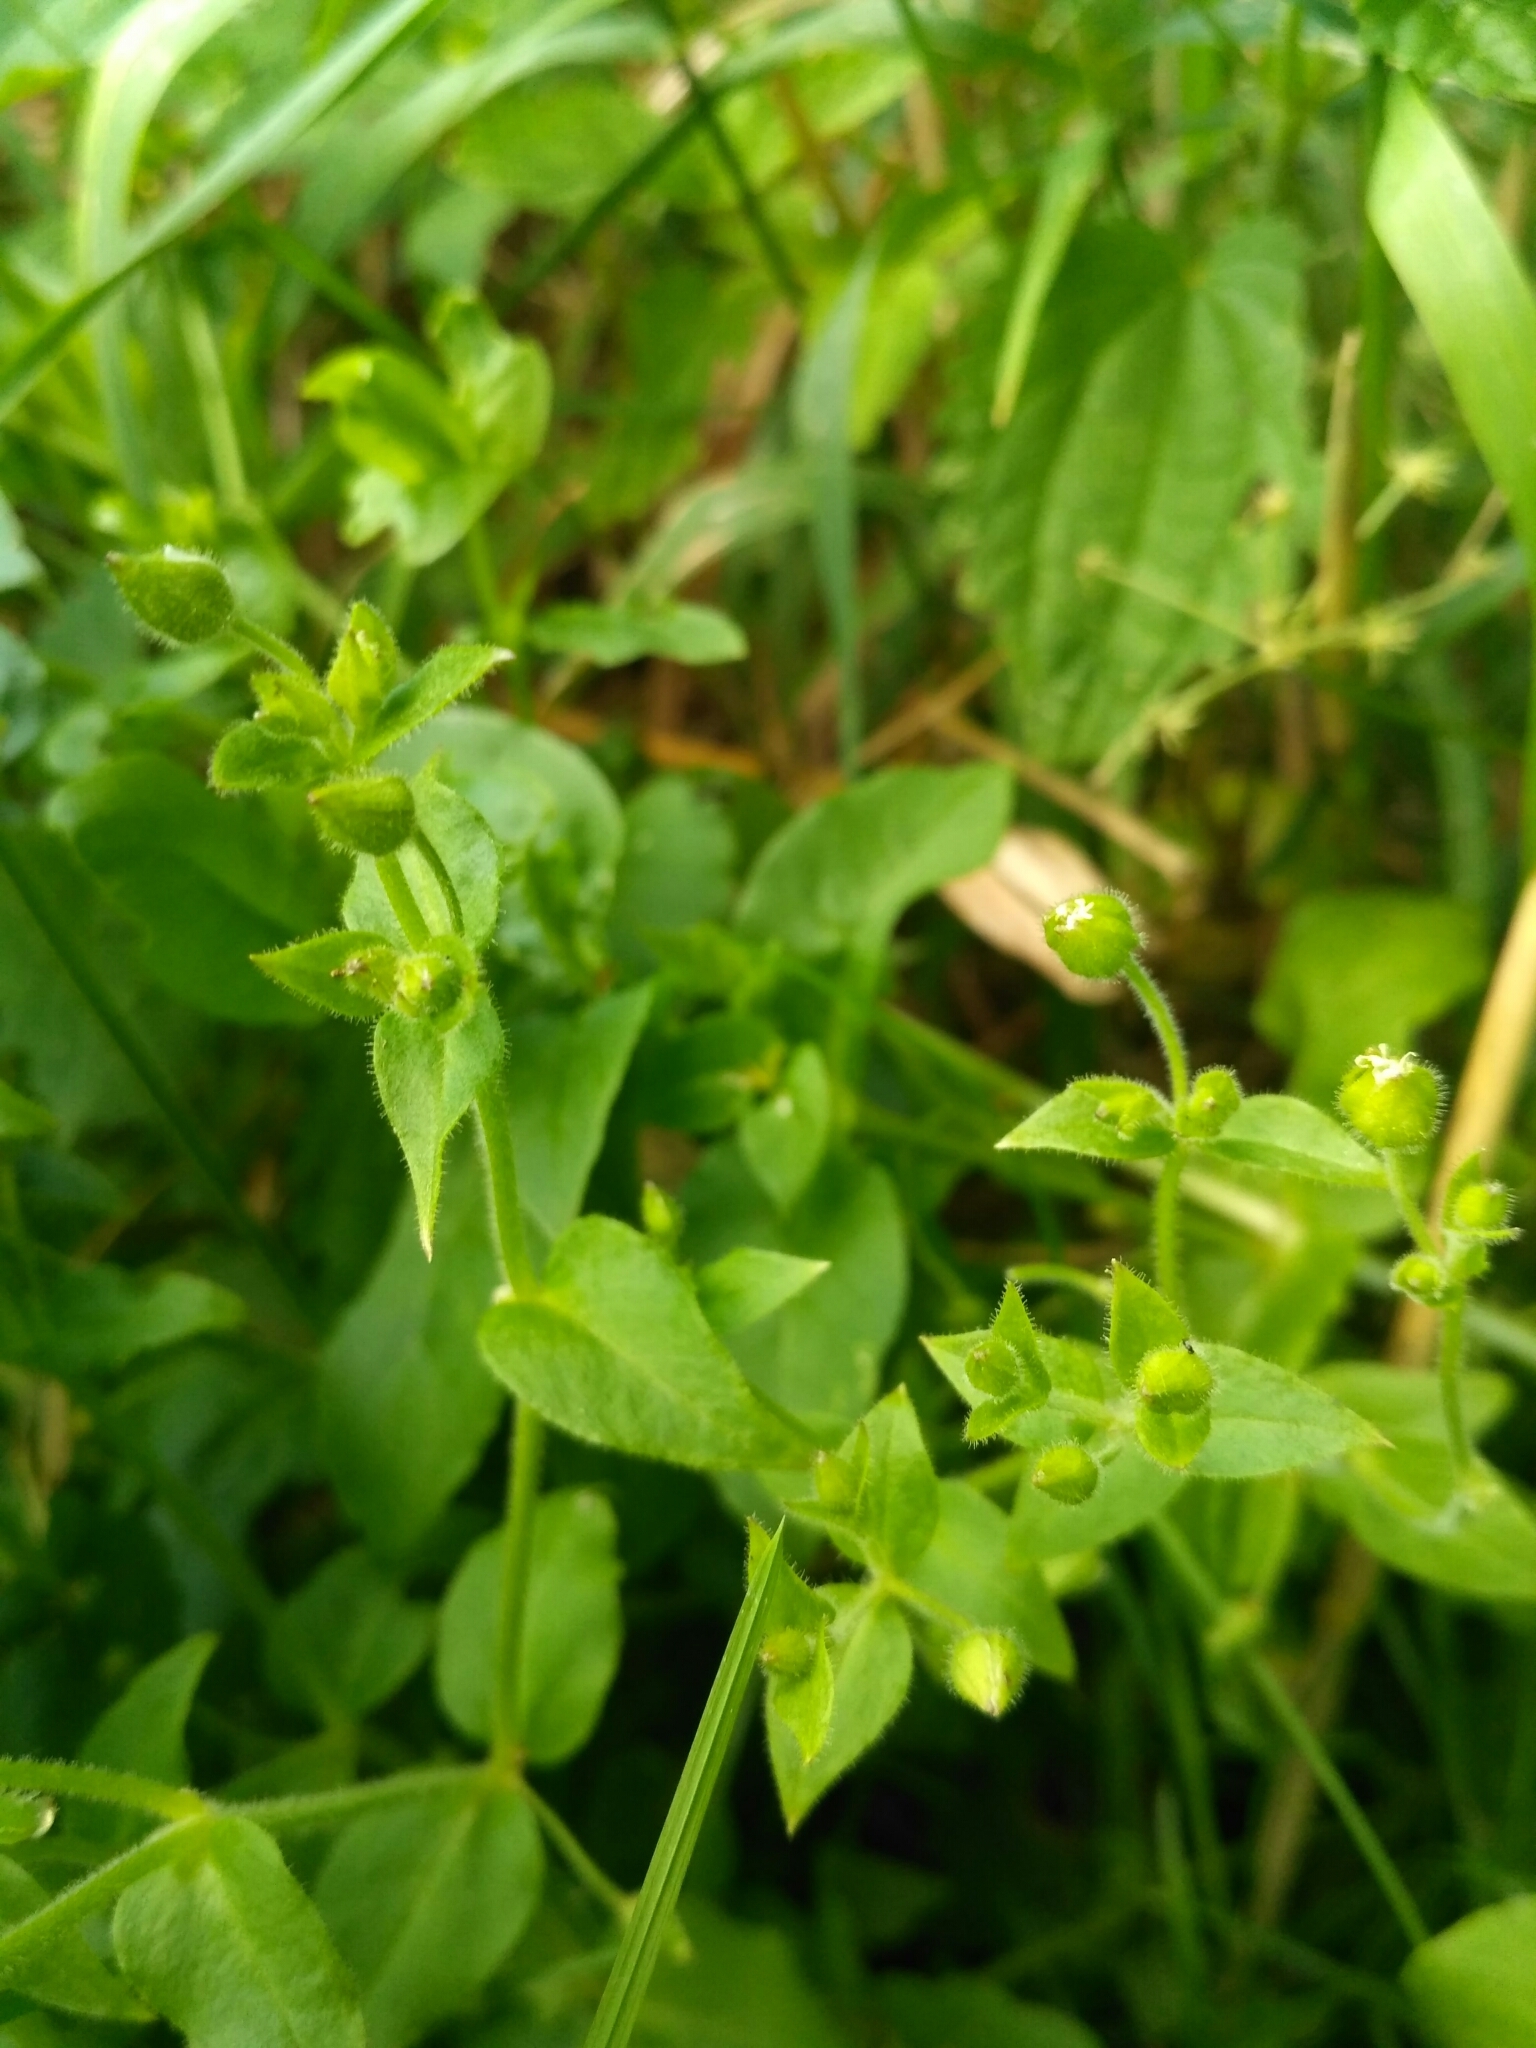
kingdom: Plantae
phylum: Tracheophyta
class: Magnoliopsida
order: Caryophyllales
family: Caryophyllaceae
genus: Stellaria
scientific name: Stellaria aquatica
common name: Water chickweed
